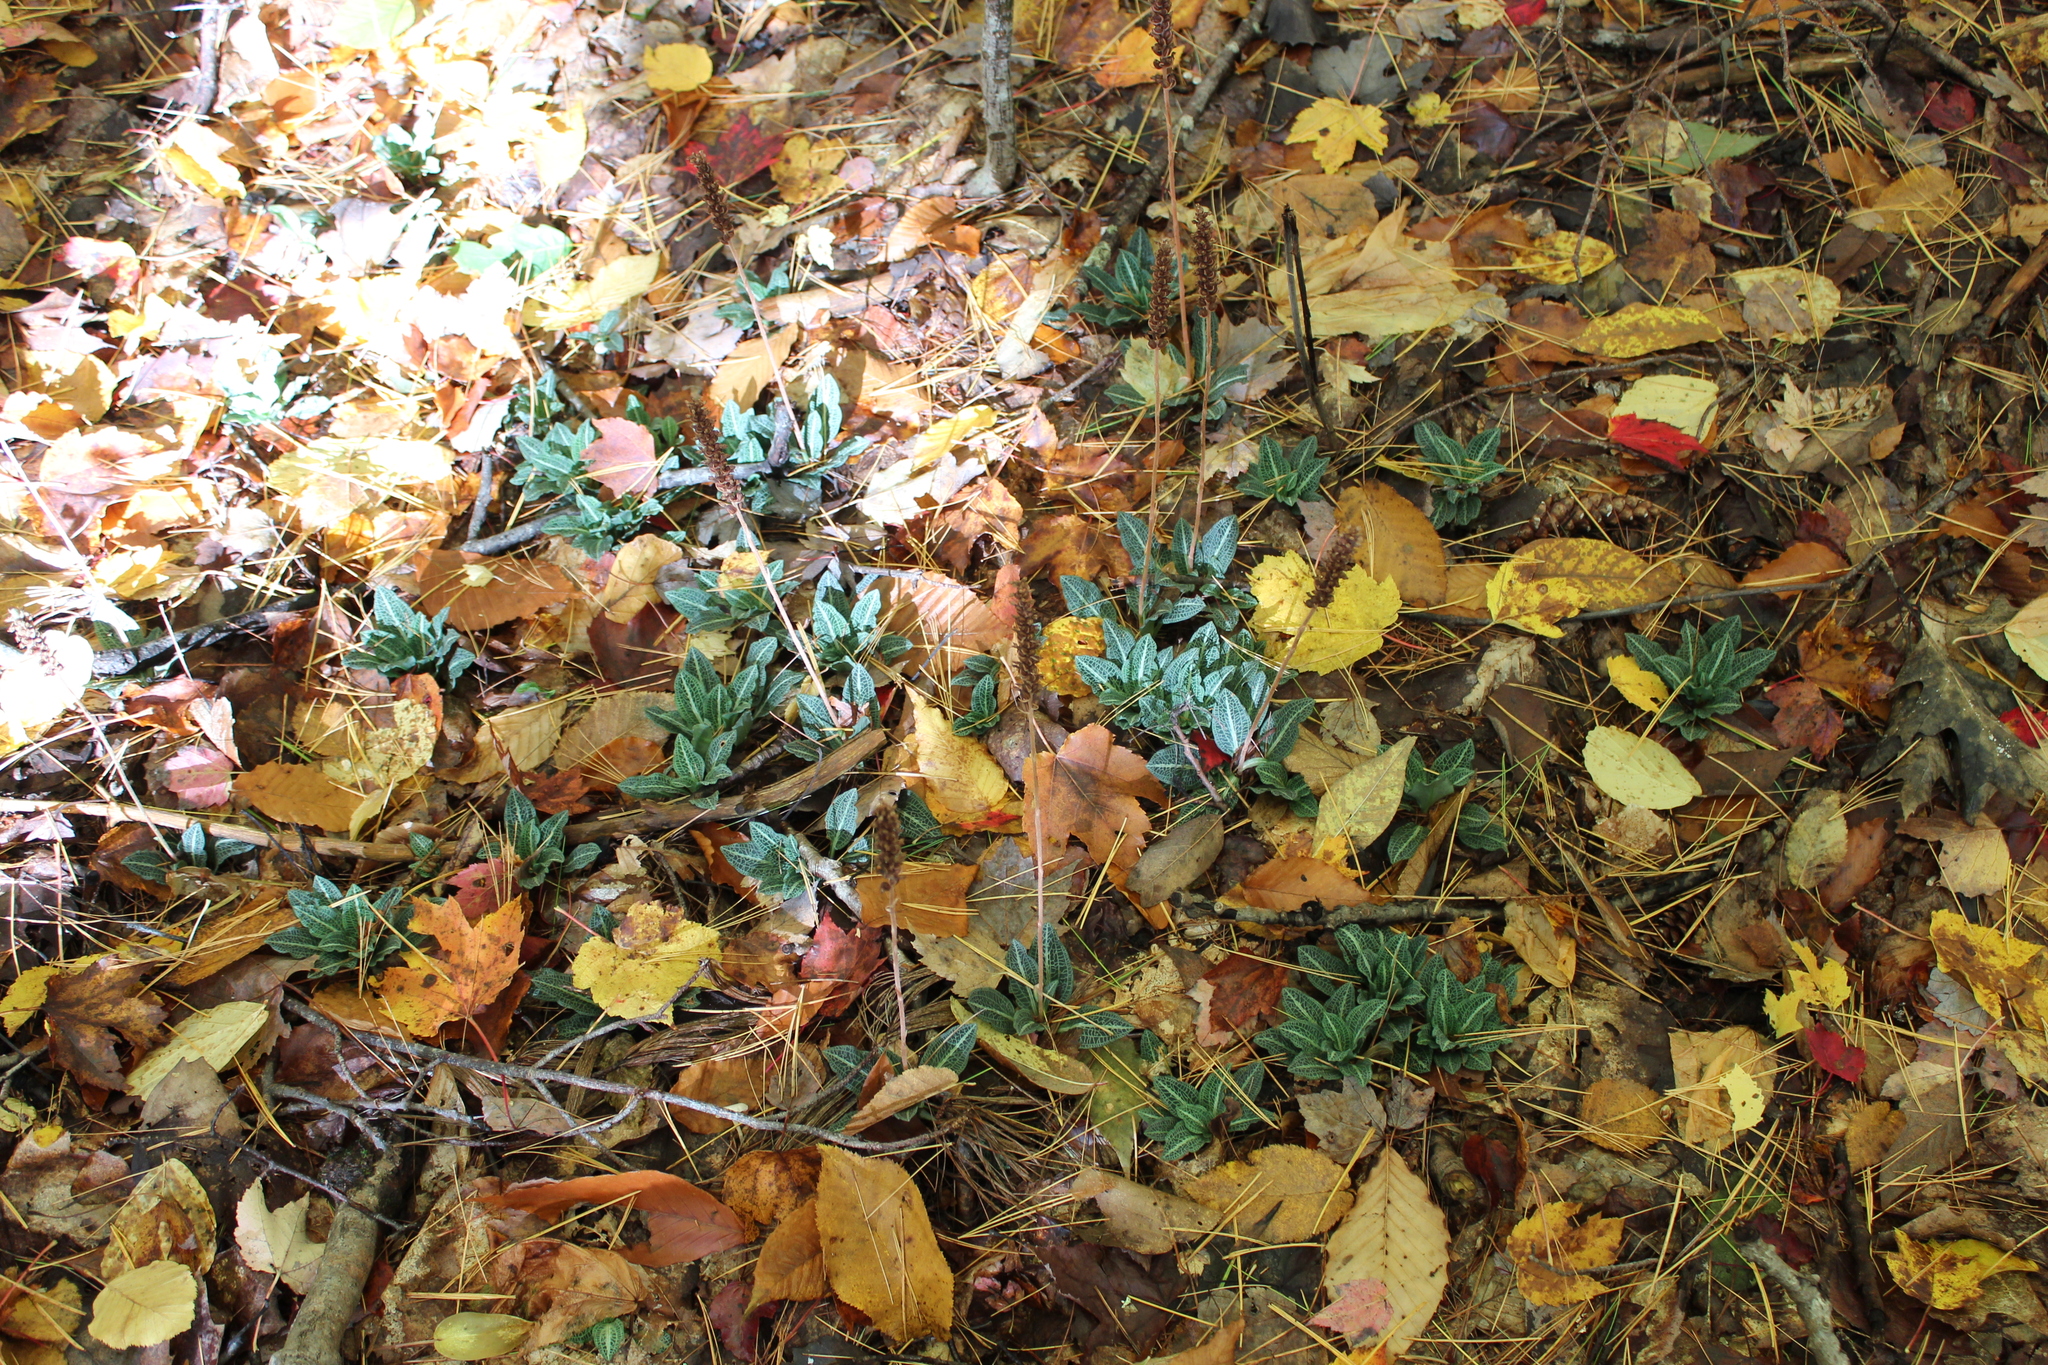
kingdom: Plantae
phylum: Tracheophyta
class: Liliopsida
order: Asparagales
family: Orchidaceae
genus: Goodyera
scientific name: Goodyera pubescens
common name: Downy rattlesnake-plantain
